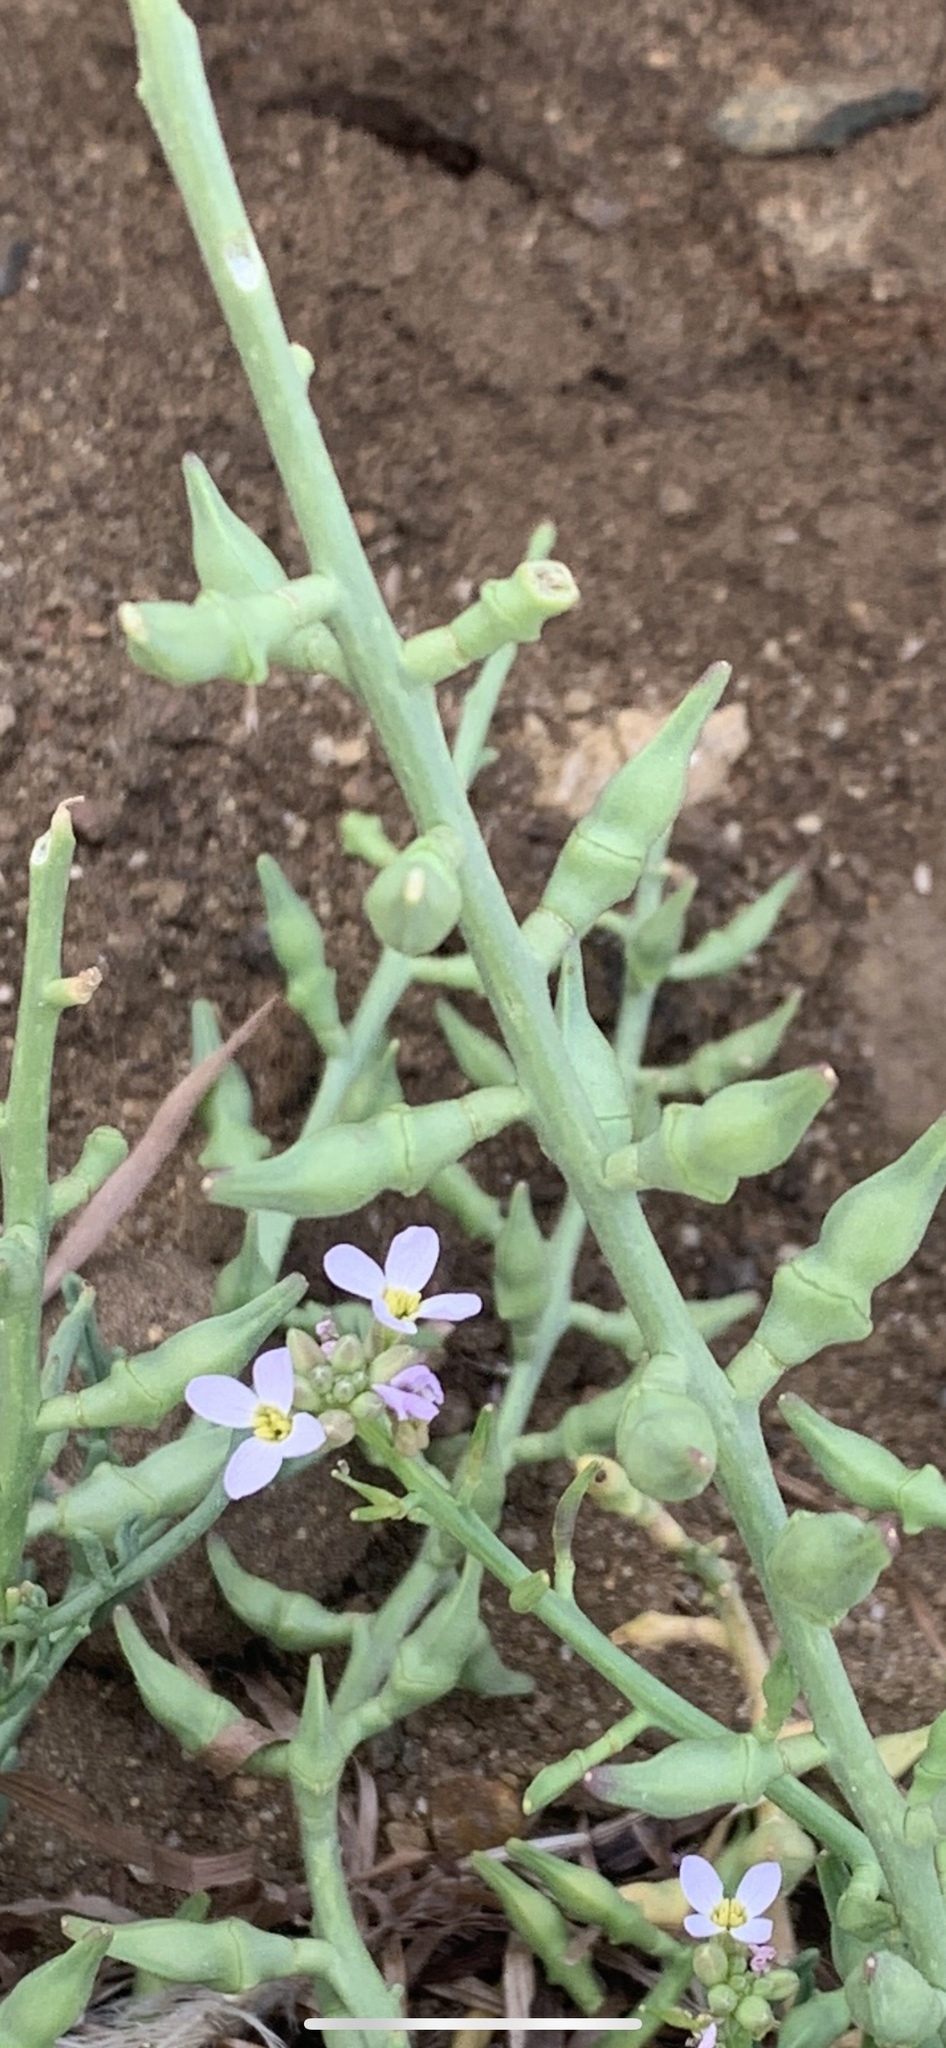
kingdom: Plantae
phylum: Tracheophyta
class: Magnoliopsida
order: Brassicales
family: Brassicaceae
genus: Cakile
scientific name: Cakile maritima
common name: Sea rocket
